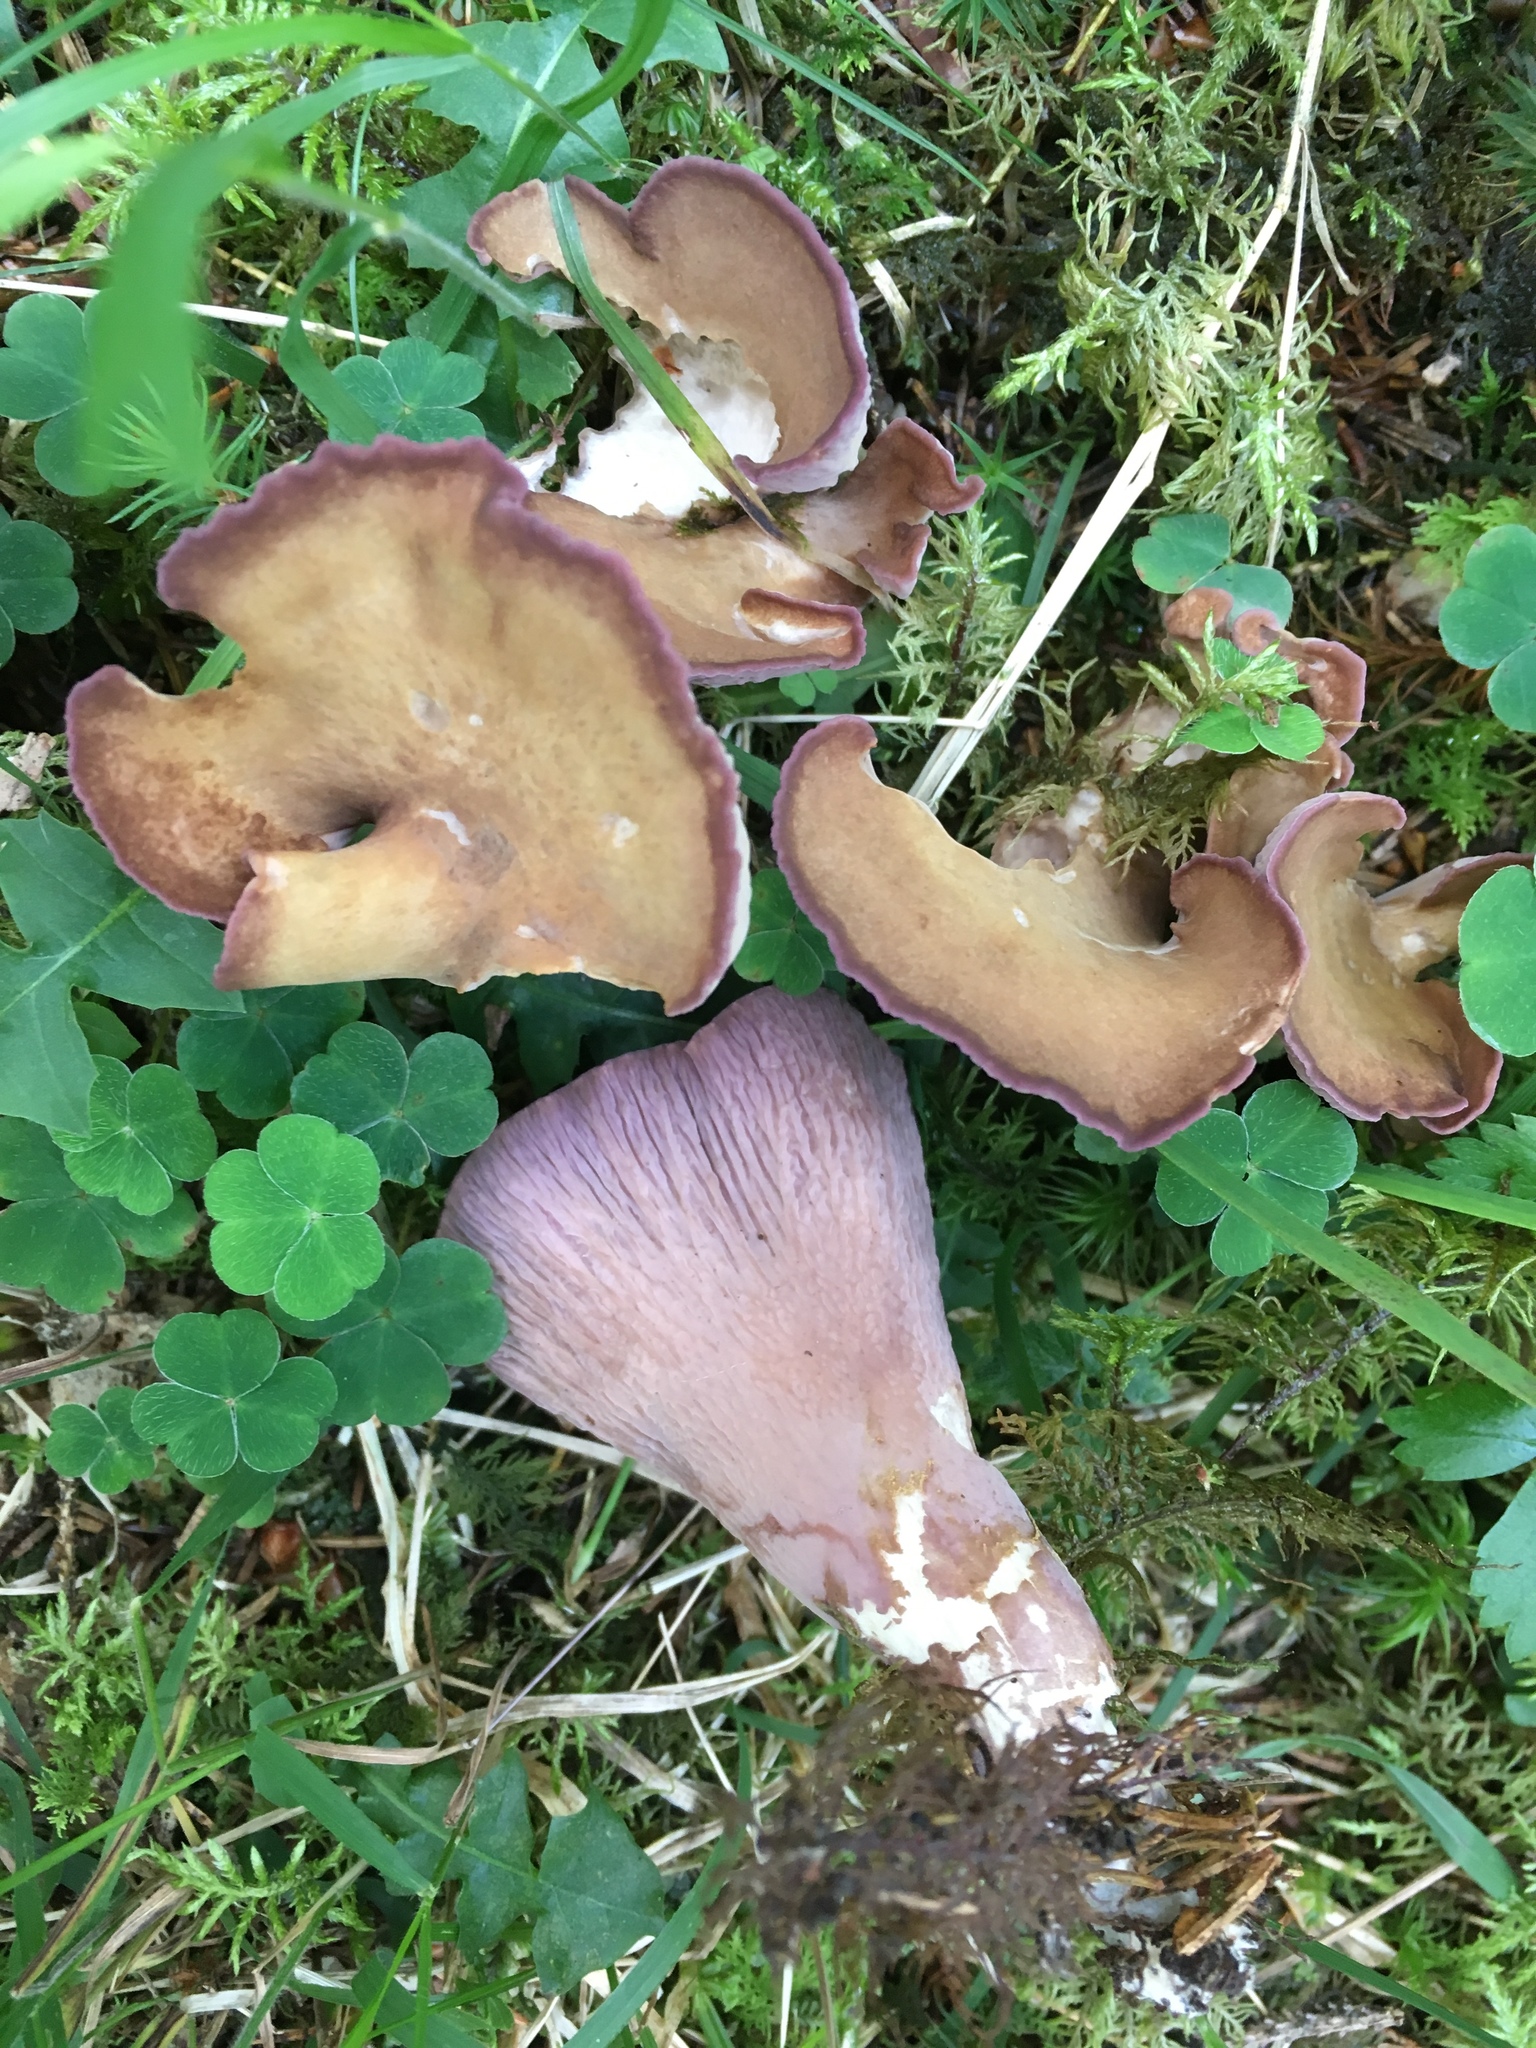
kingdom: Fungi
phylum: Basidiomycota
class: Agaricomycetes
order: Gomphales
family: Gomphaceae
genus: Gomphus
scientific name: Gomphus clavatus
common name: Pig's ear
